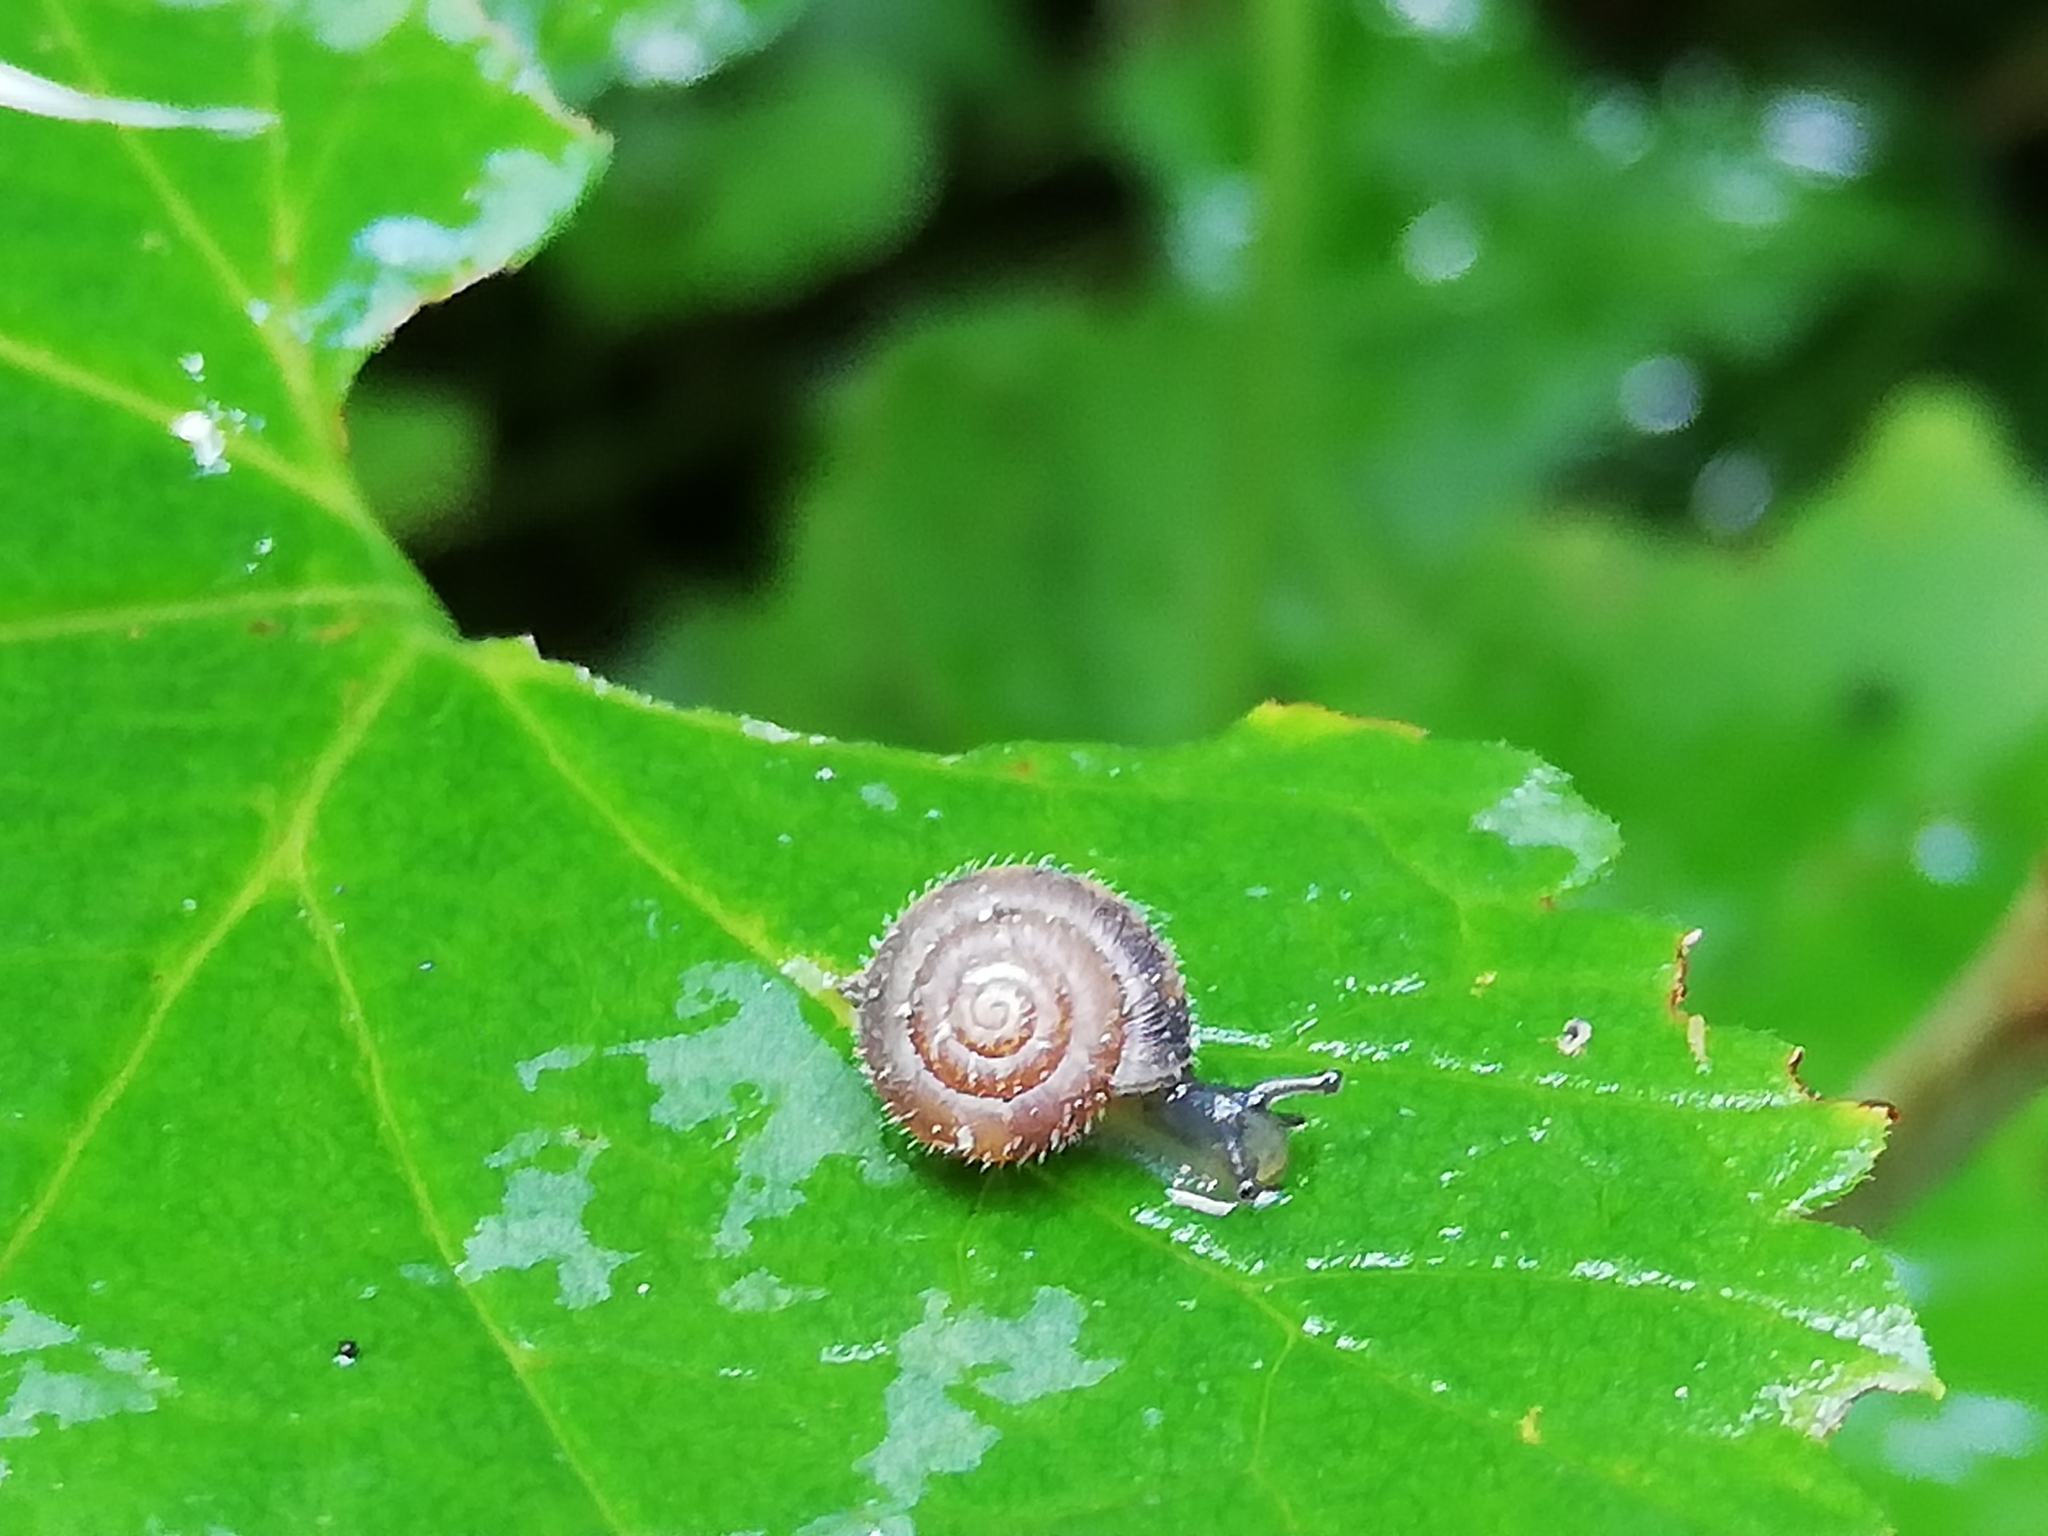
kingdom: Animalia
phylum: Mollusca
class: Gastropoda
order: Stylommatophora
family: Hygromiidae
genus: Trochulus
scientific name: Trochulus hispidus
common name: Hairy snail
